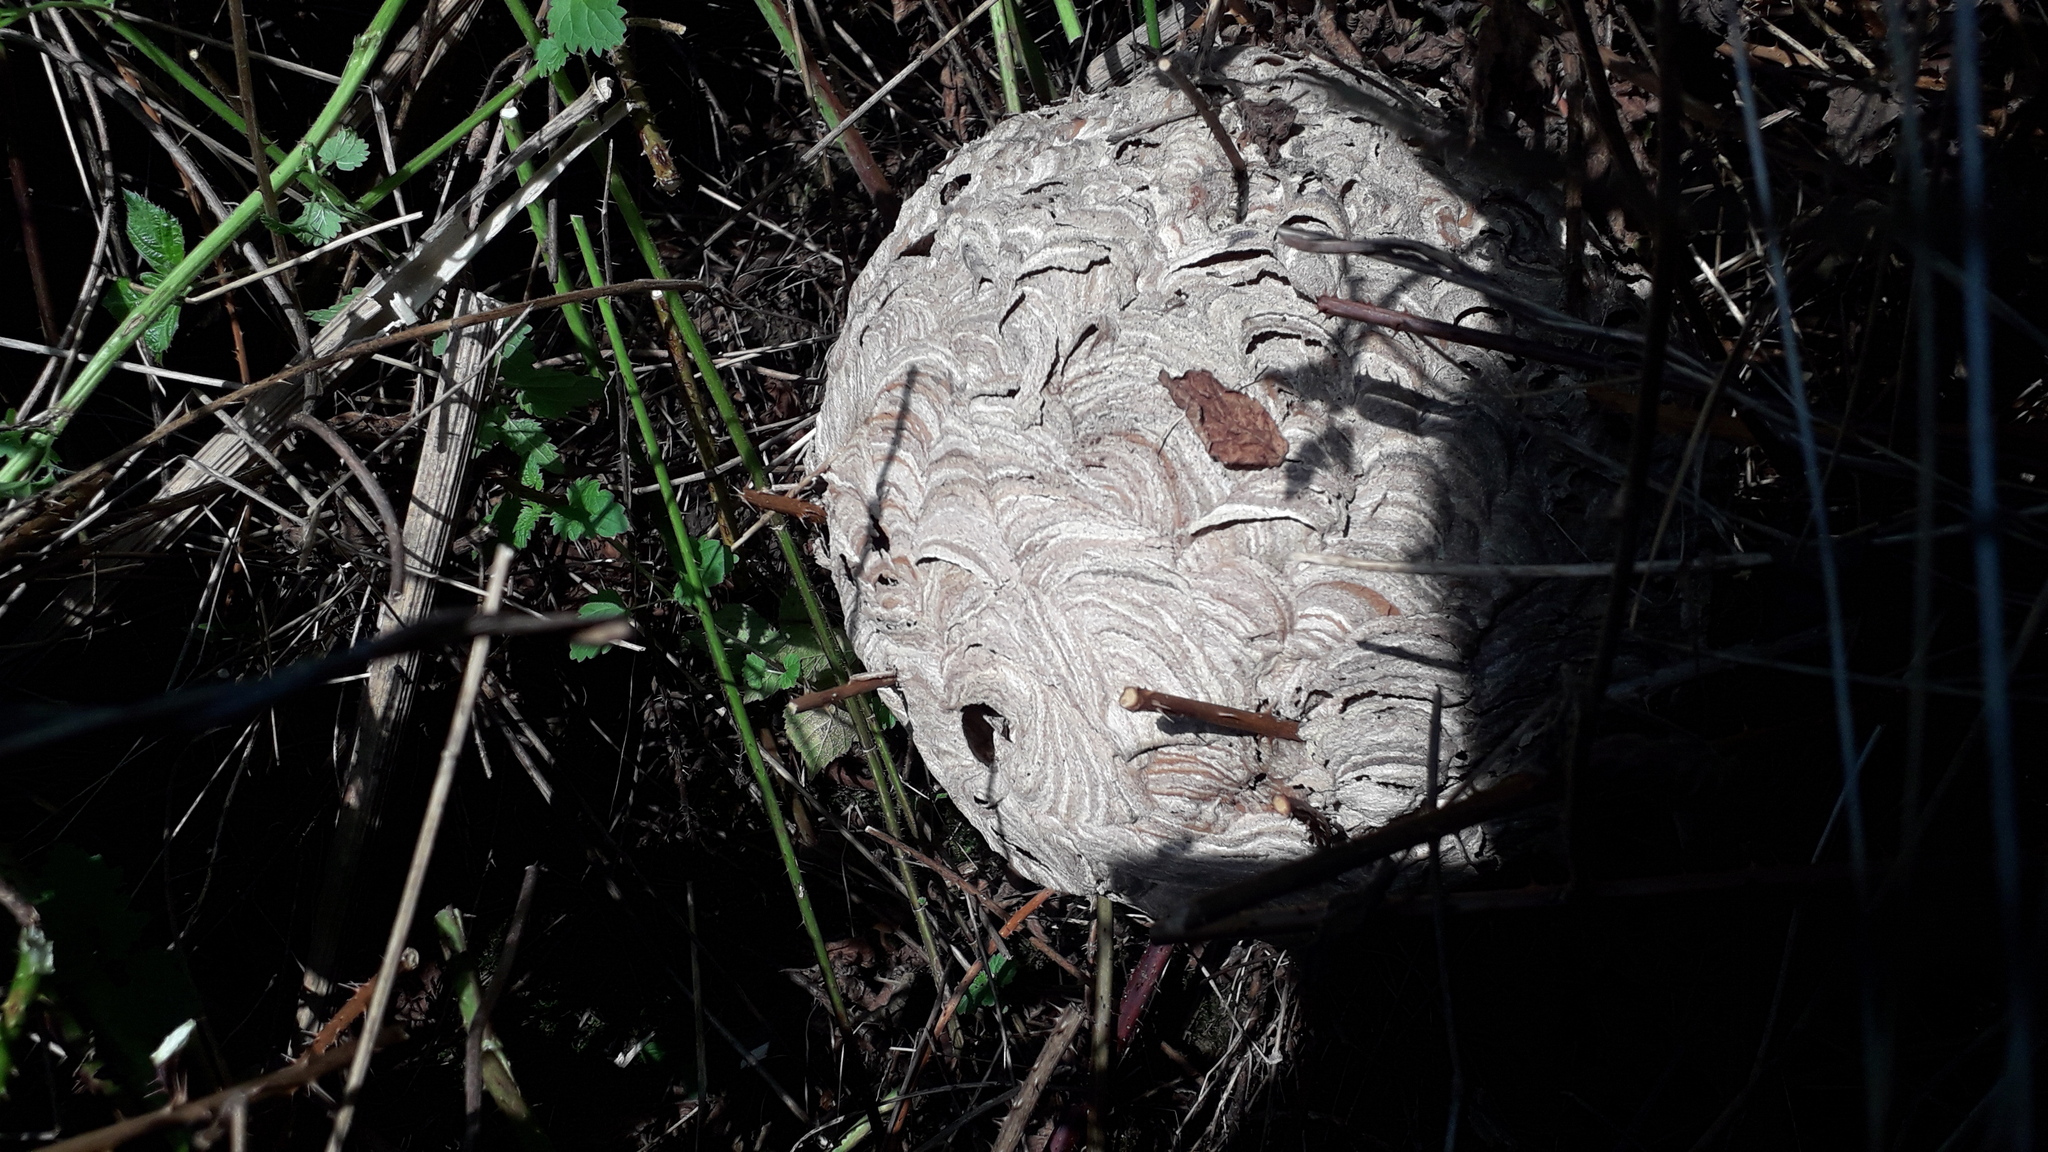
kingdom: Animalia
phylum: Arthropoda
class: Insecta
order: Hymenoptera
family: Vespidae
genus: Vespa
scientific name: Vespa velutina
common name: Asian hornet
